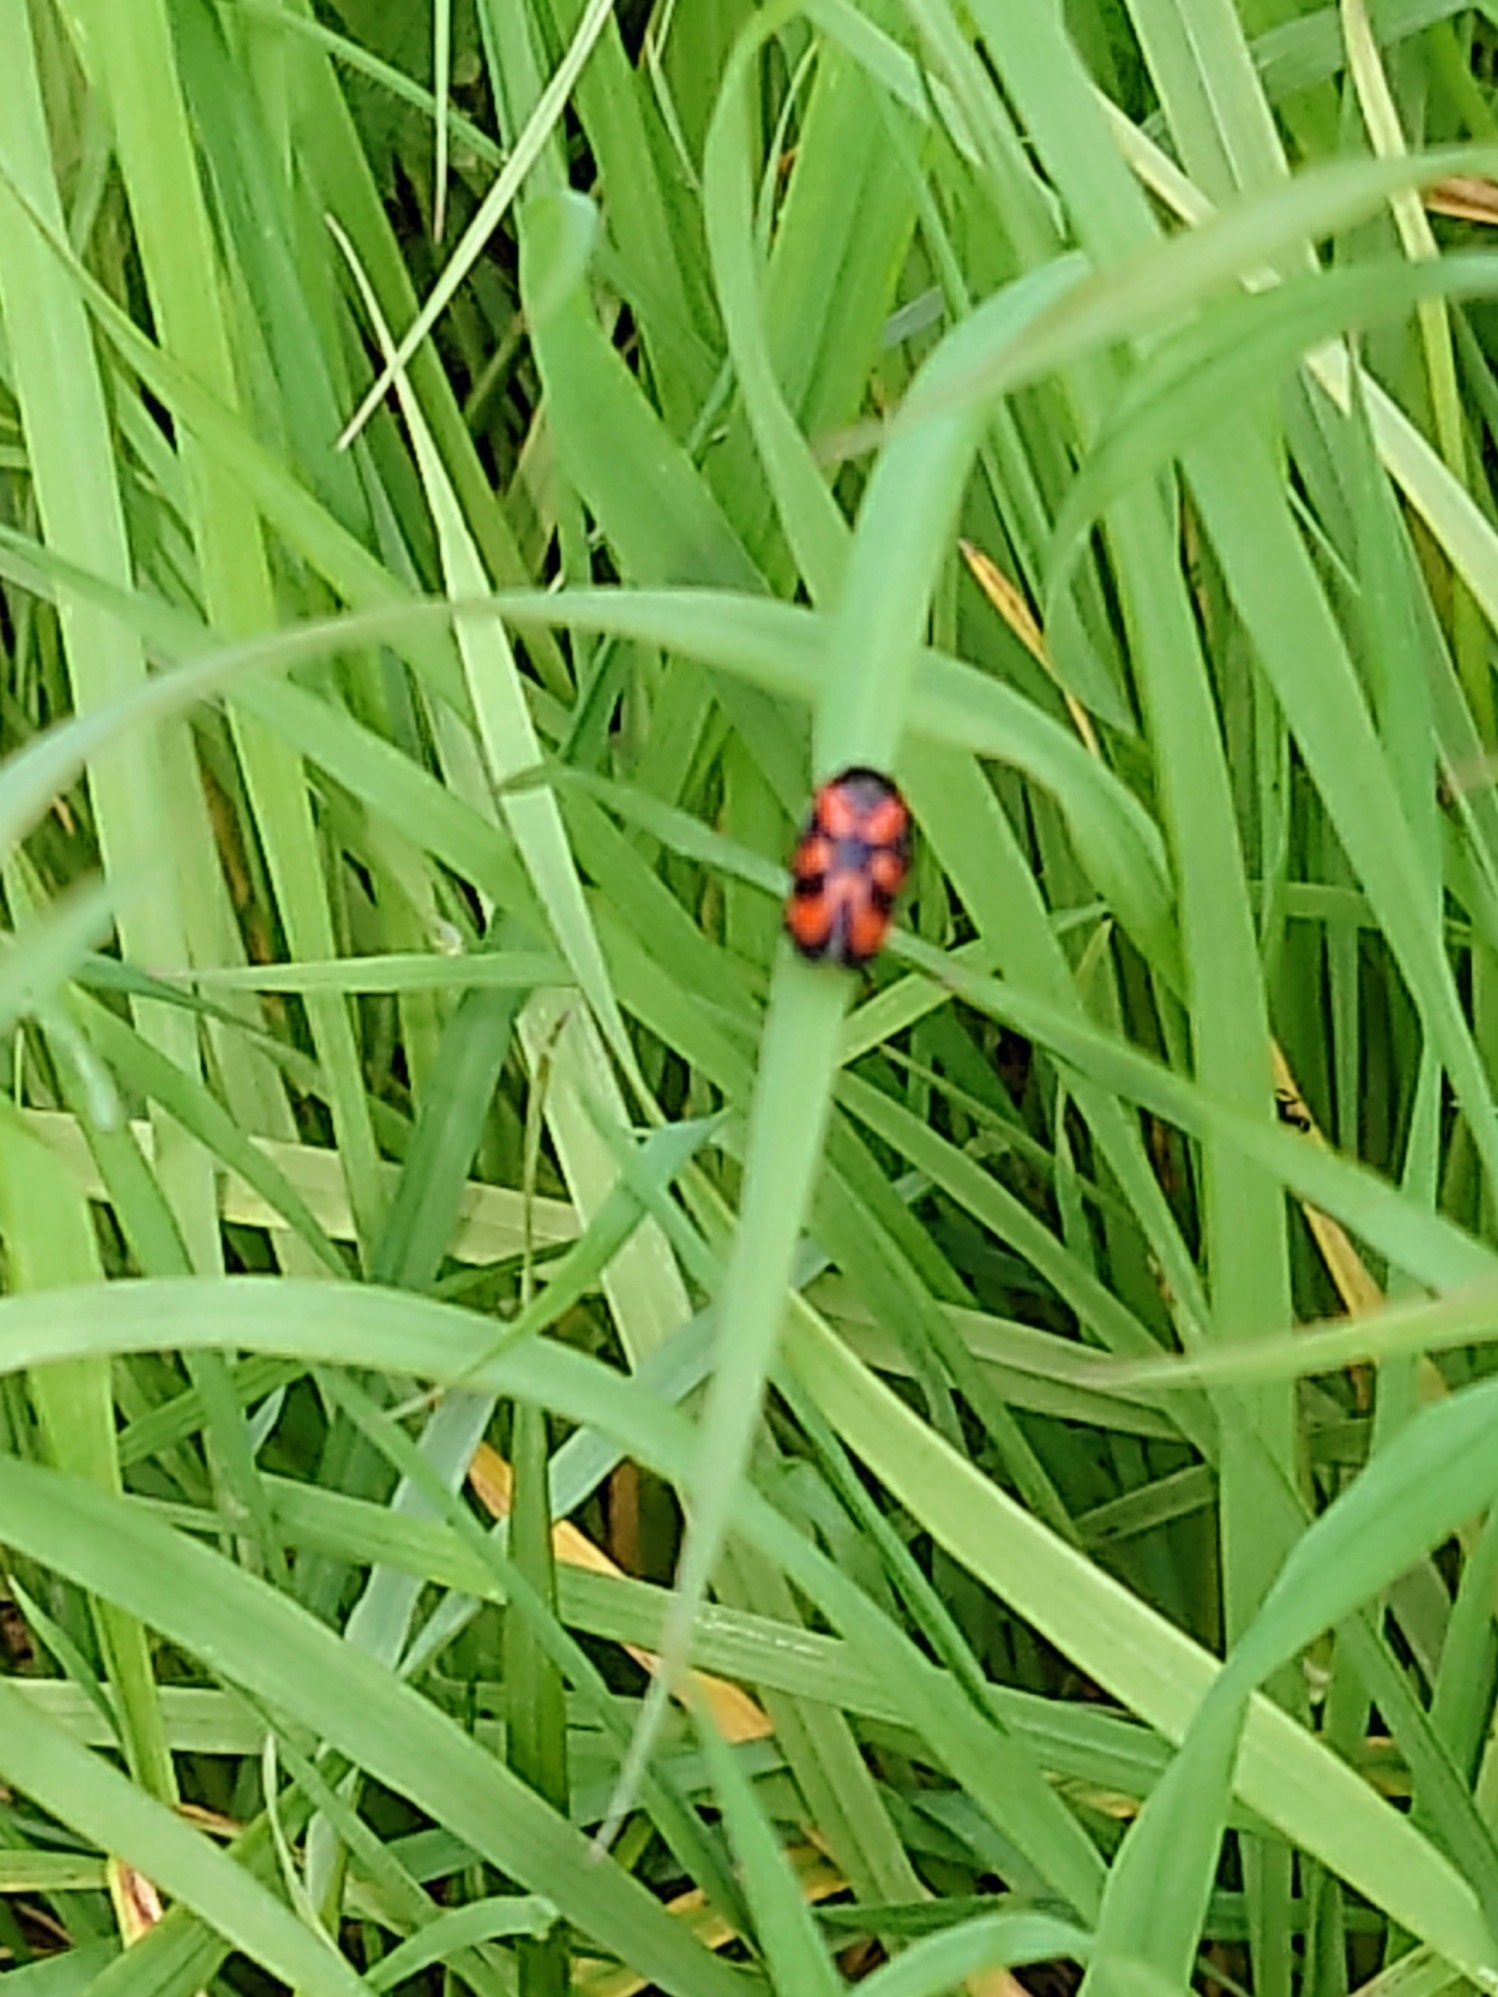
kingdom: Animalia
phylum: Arthropoda
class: Insecta
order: Hemiptera
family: Cercopidae
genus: Cercopis
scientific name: Cercopis vulnerata
